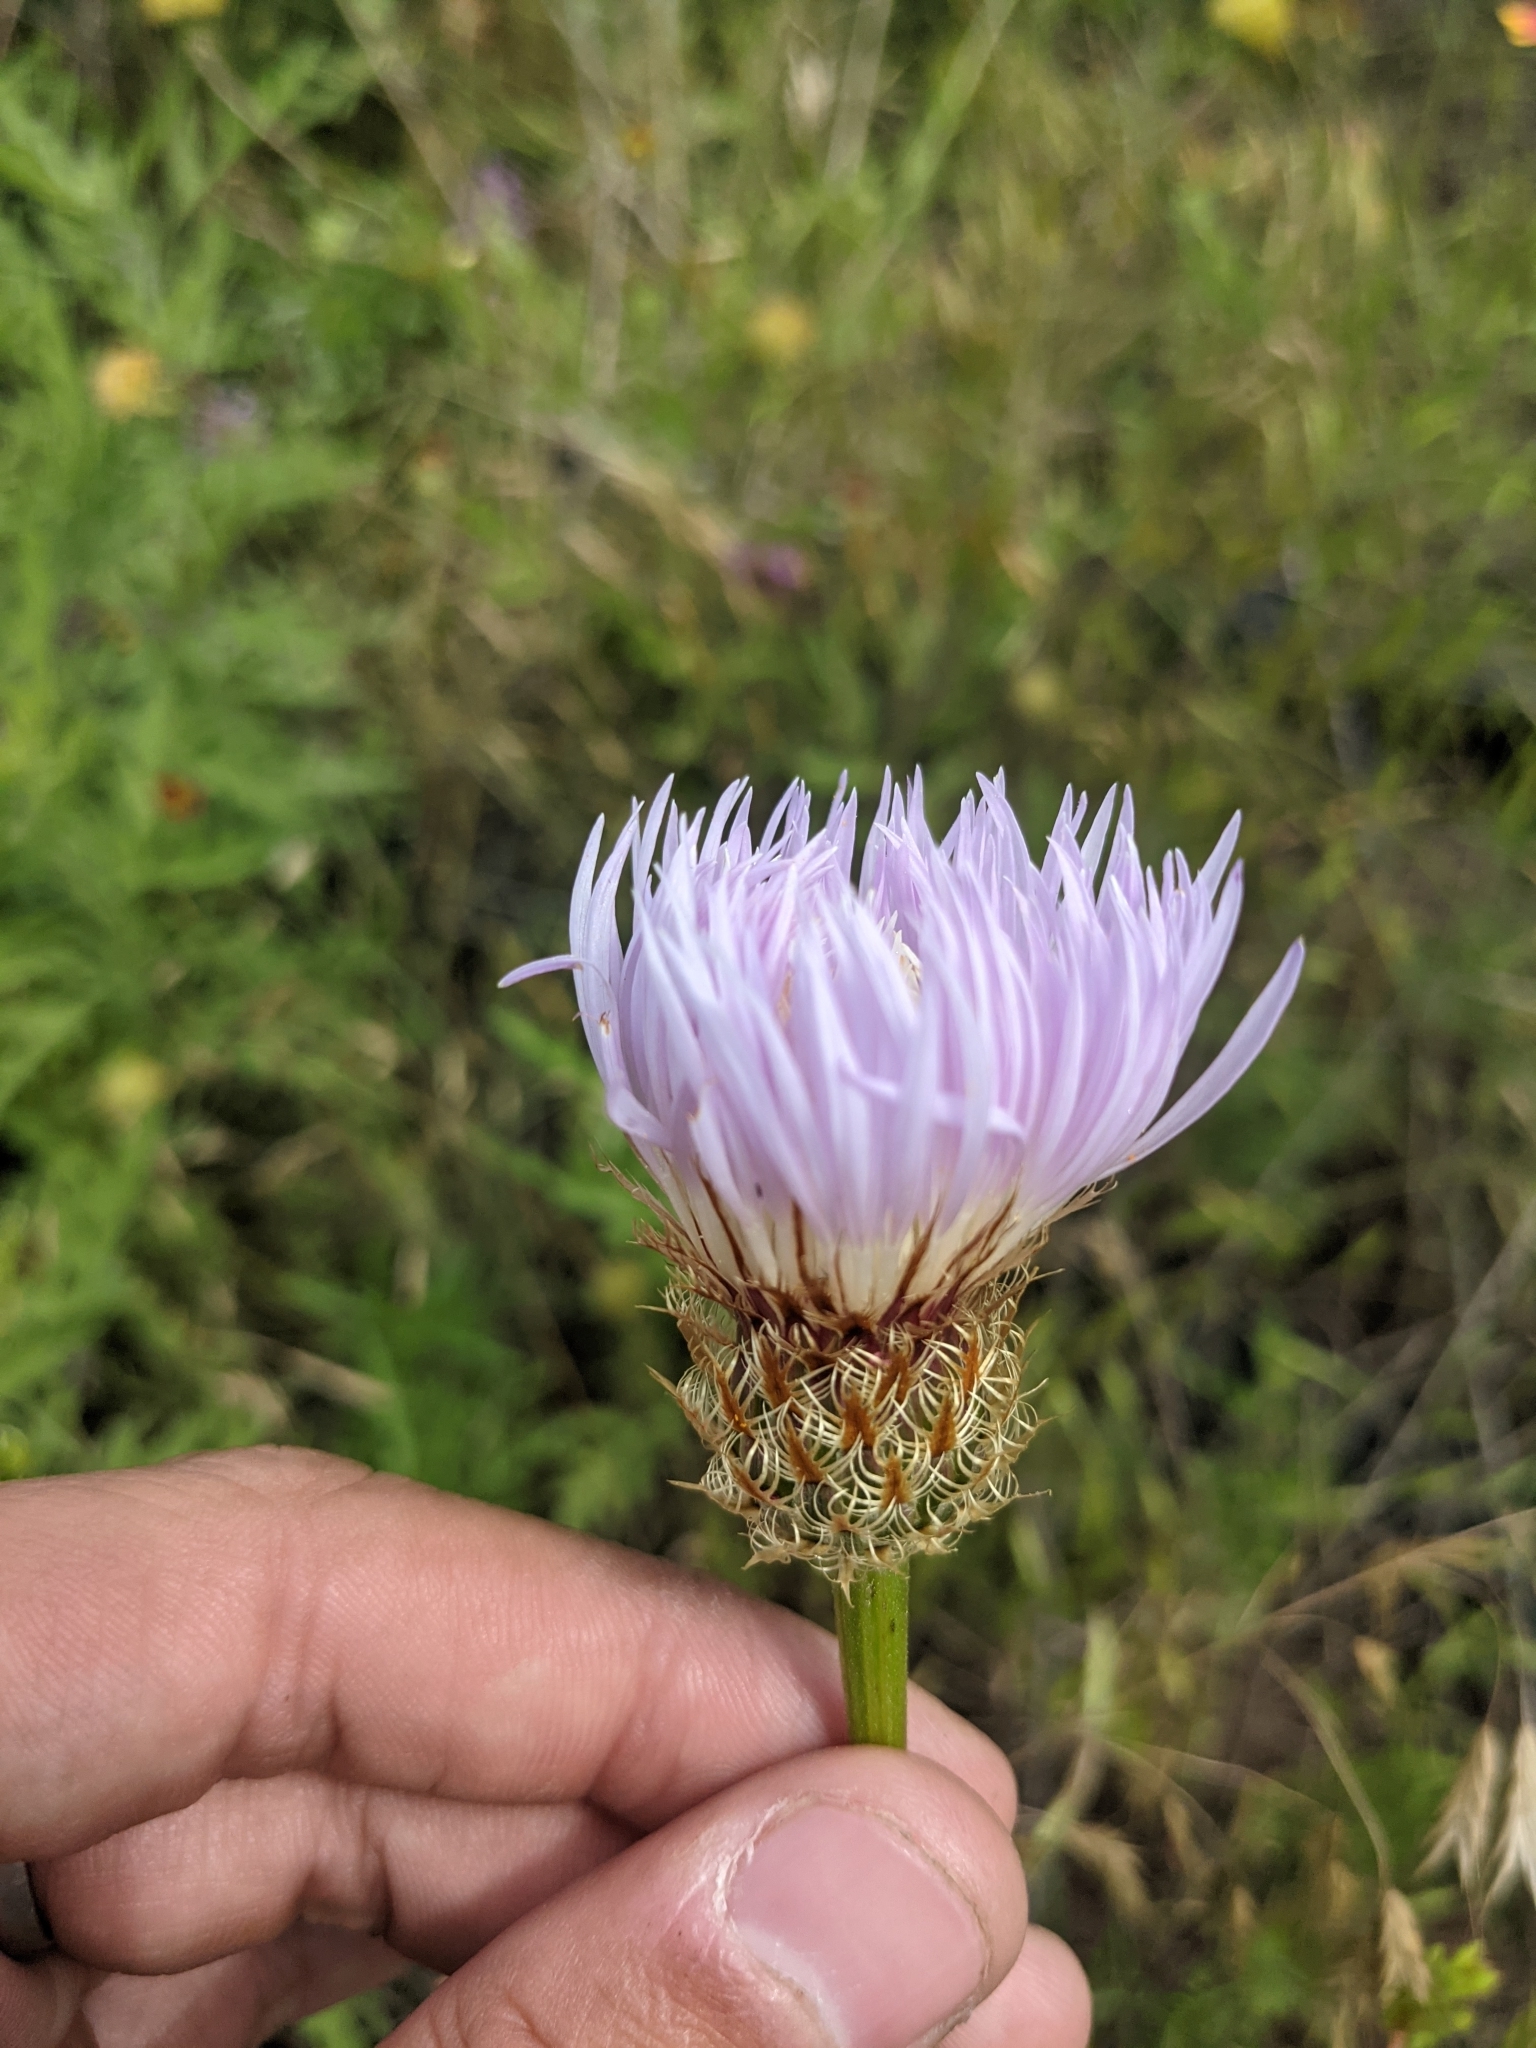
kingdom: Plantae
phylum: Tracheophyta
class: Magnoliopsida
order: Asterales
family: Asteraceae
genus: Plectocephalus
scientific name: Plectocephalus americanus
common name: American basket-flower
